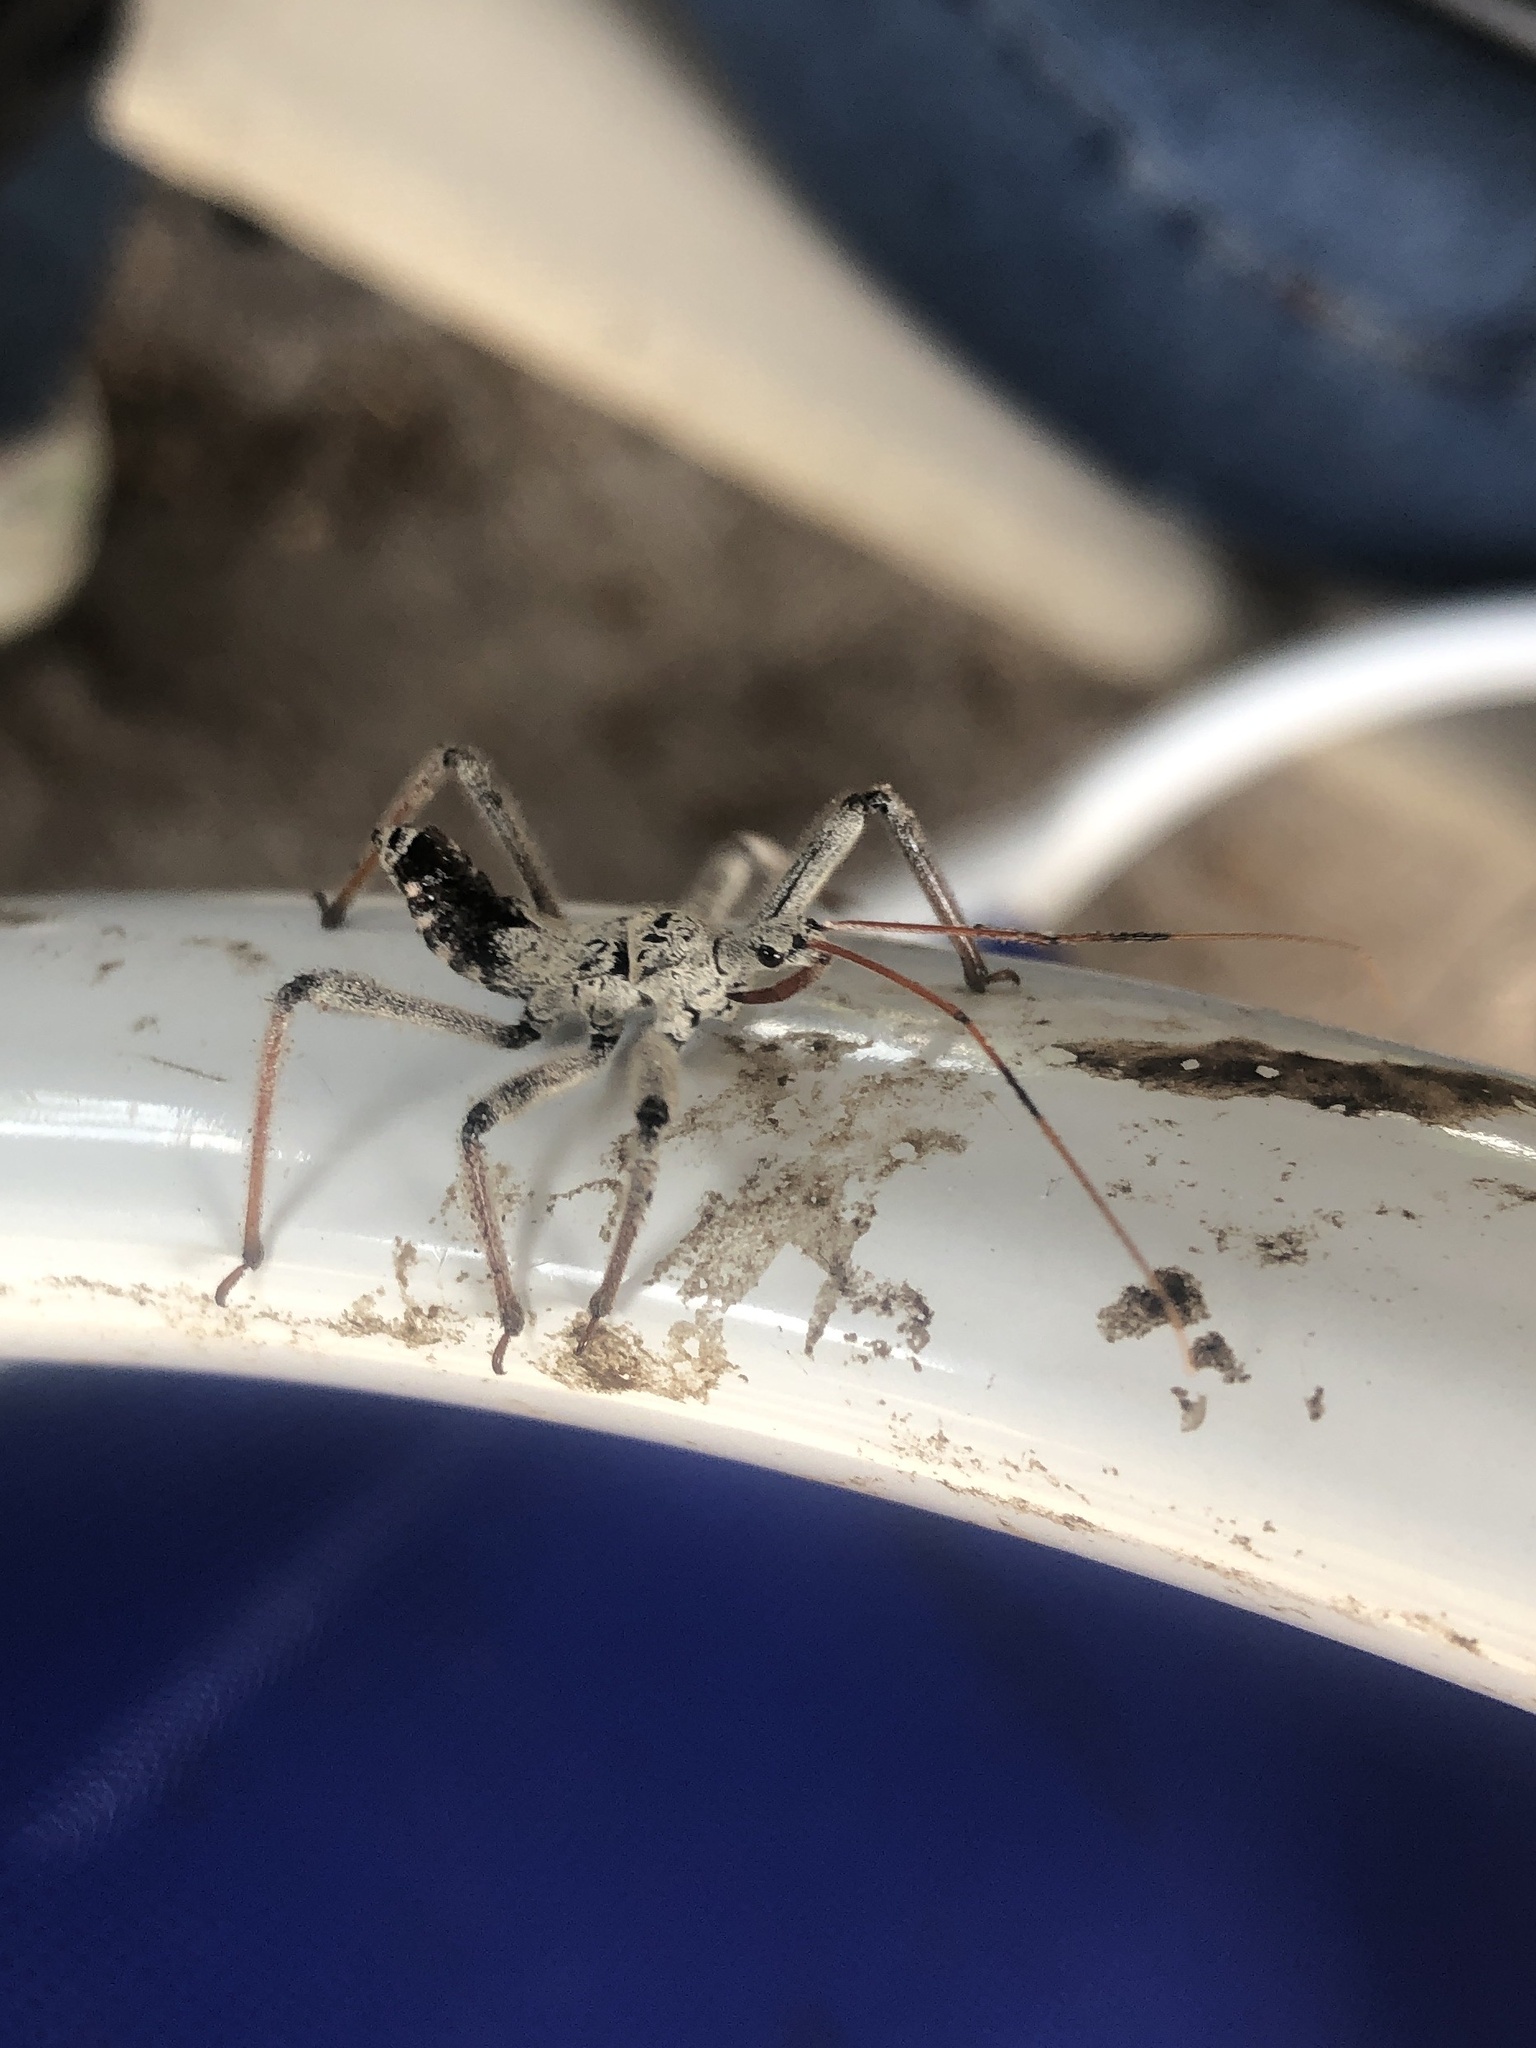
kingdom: Animalia
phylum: Arthropoda
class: Insecta
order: Hemiptera
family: Reduviidae
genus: Arilus
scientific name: Arilus cristatus
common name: North american wheel bug
